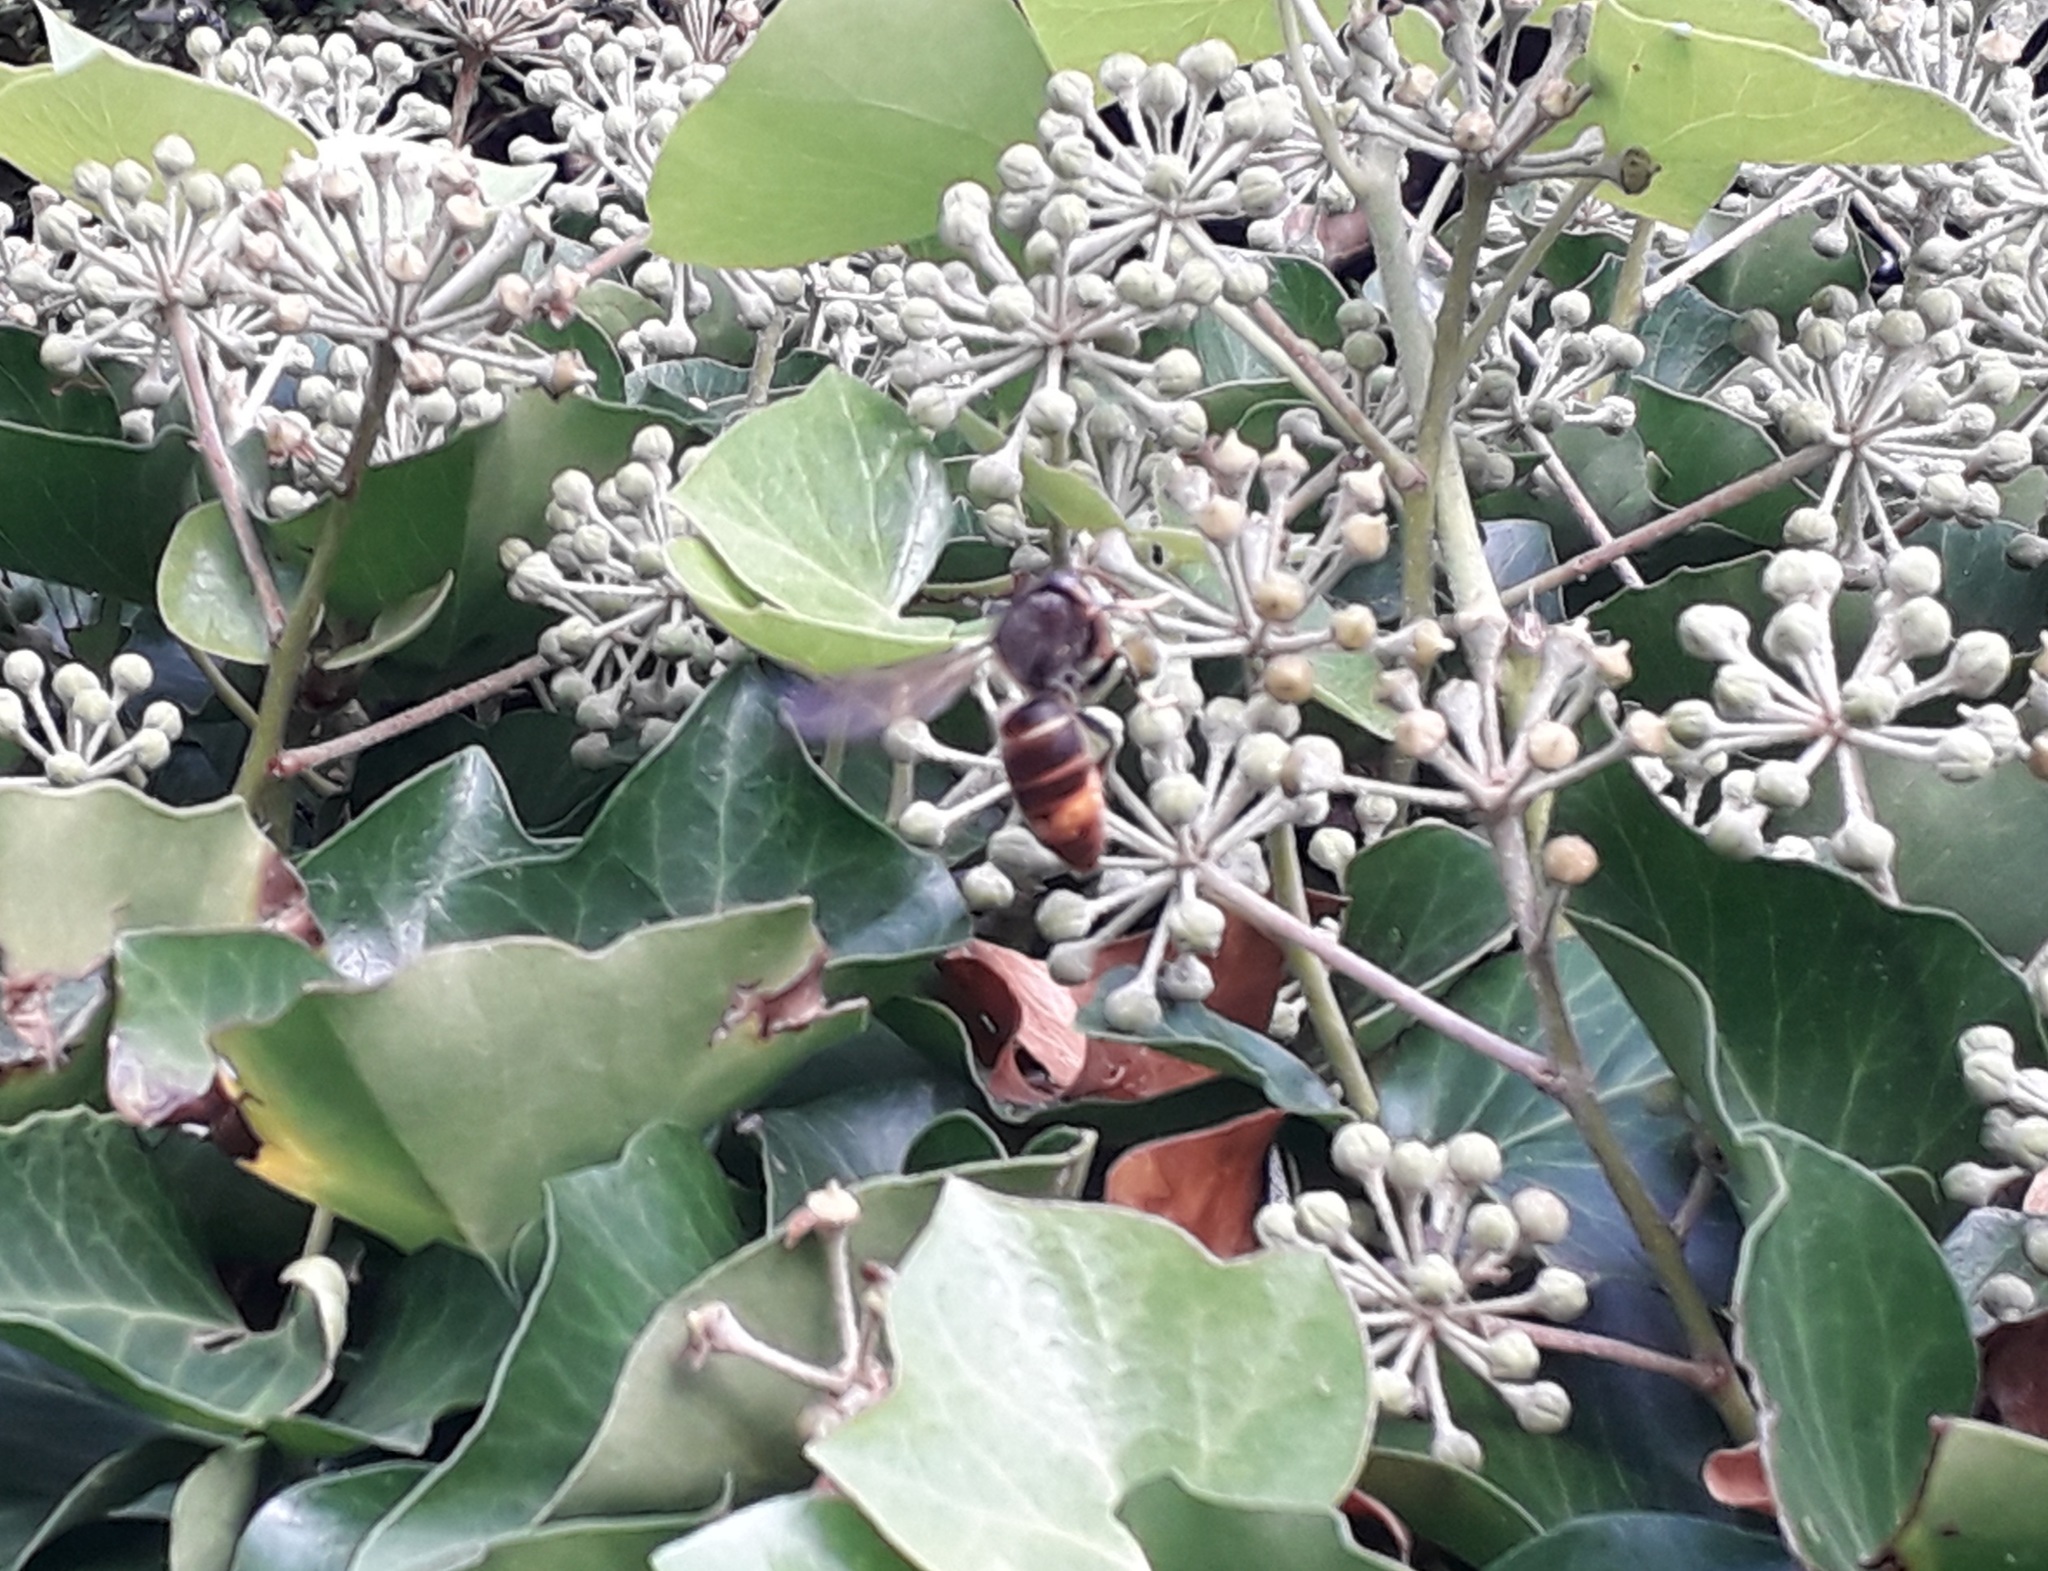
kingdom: Animalia
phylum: Arthropoda
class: Insecta
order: Hymenoptera
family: Vespidae
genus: Vespa
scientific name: Vespa velutina
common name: Asian hornet
